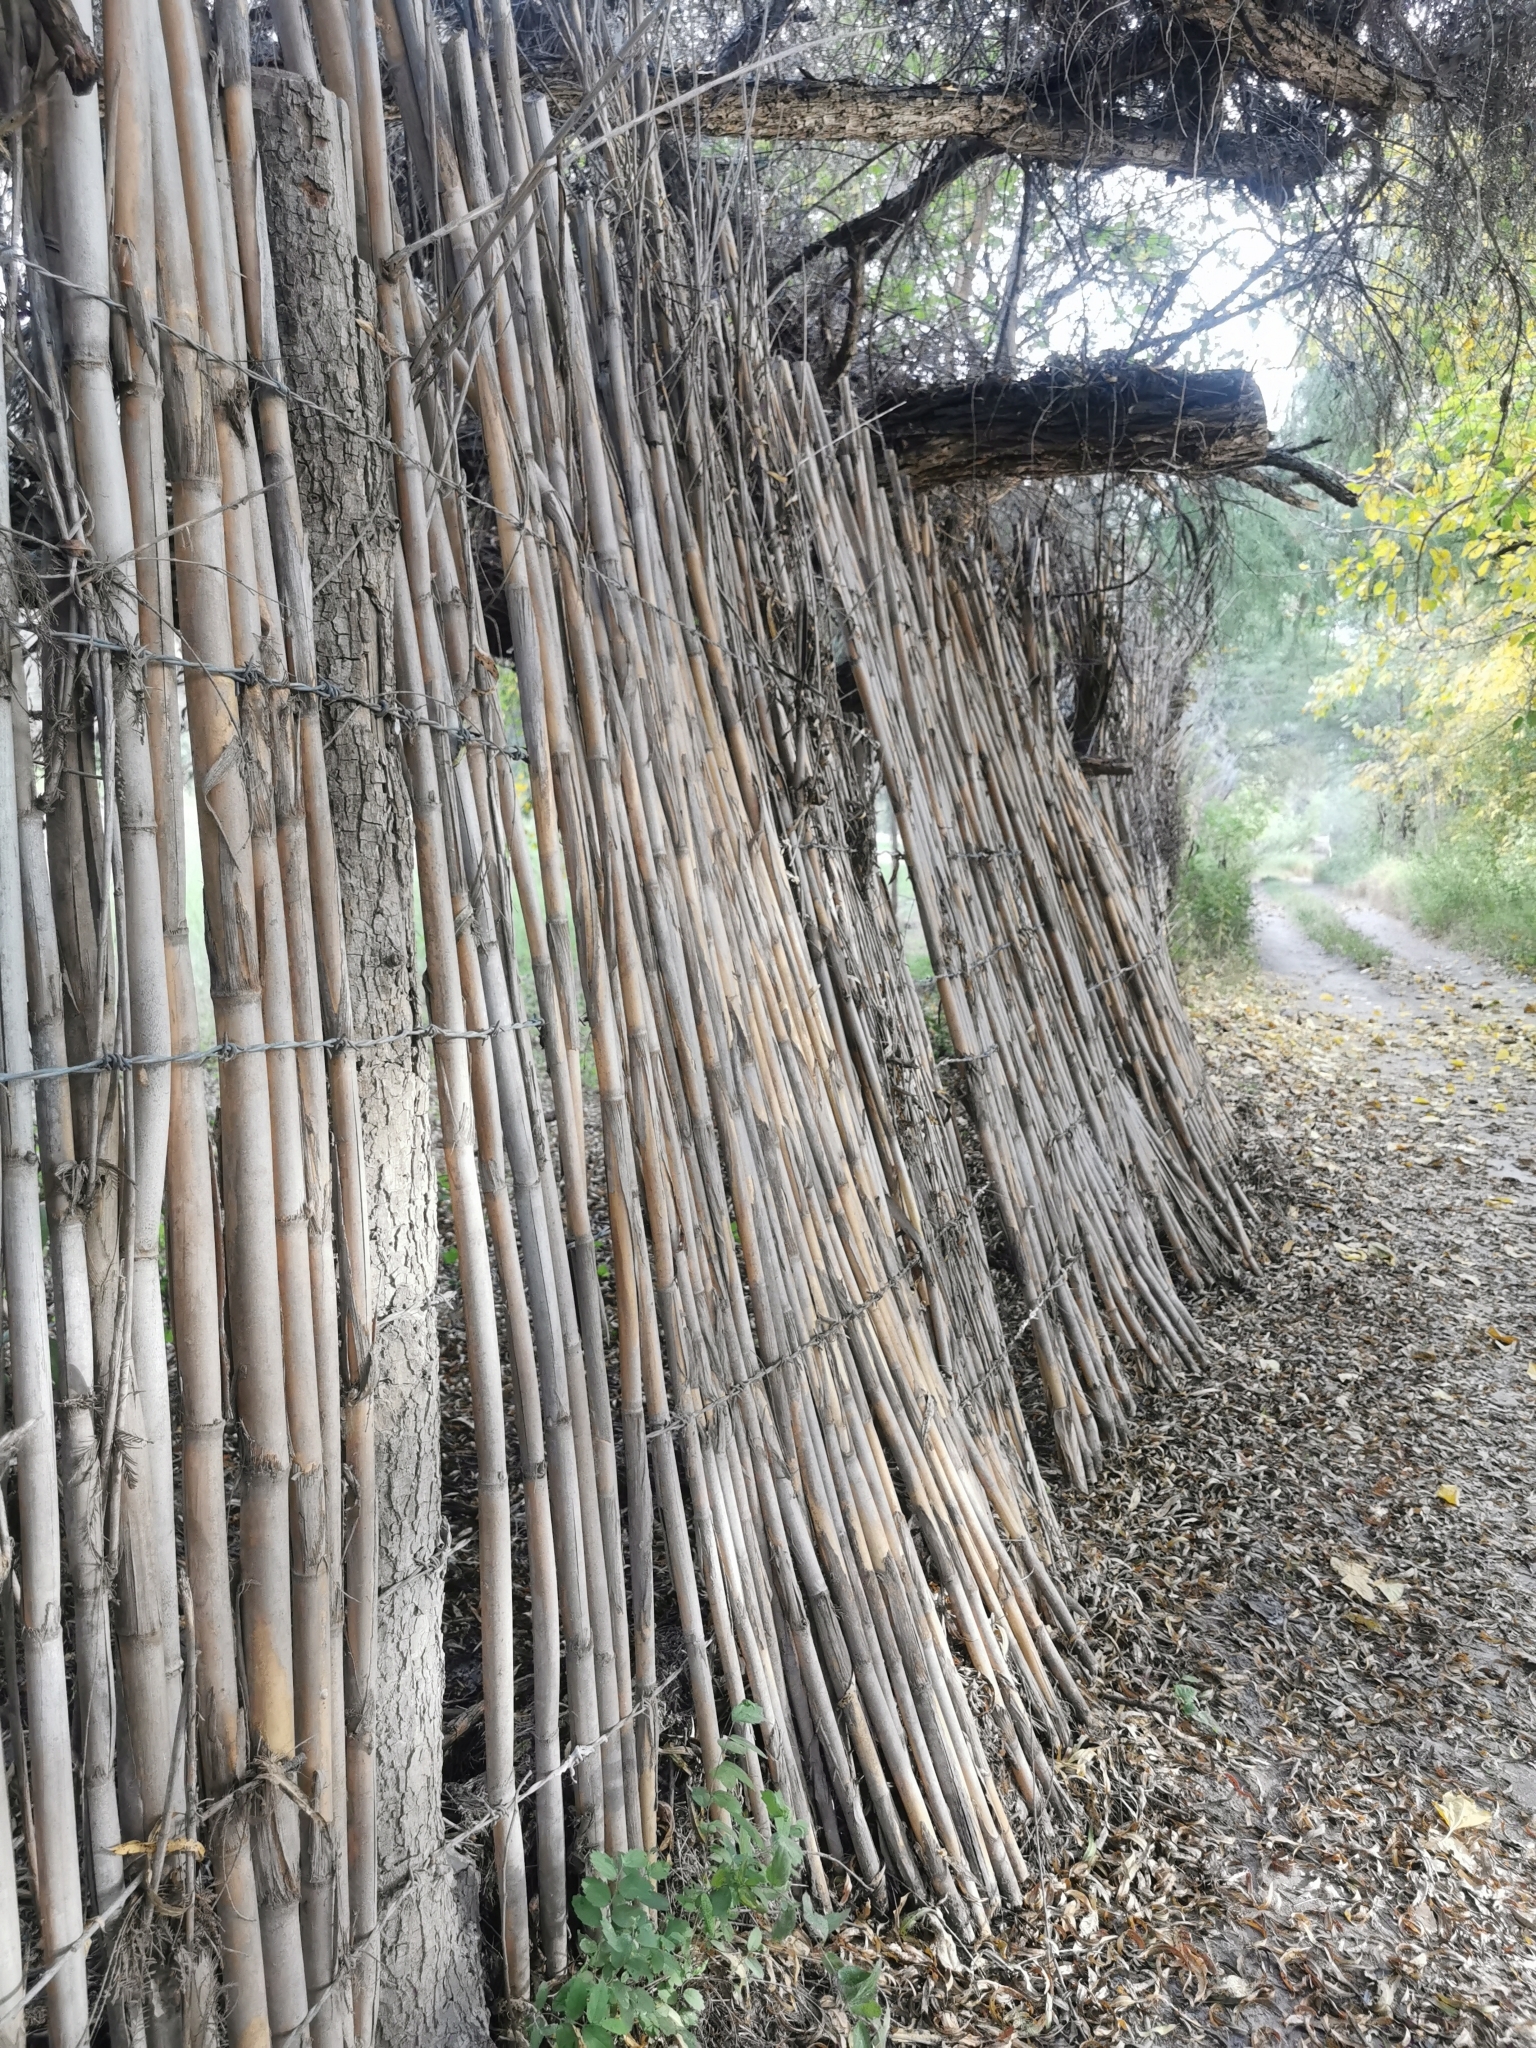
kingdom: Plantae
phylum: Tracheophyta
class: Liliopsida
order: Poales
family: Poaceae
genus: Arundo
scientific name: Arundo donax
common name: Giant reed
